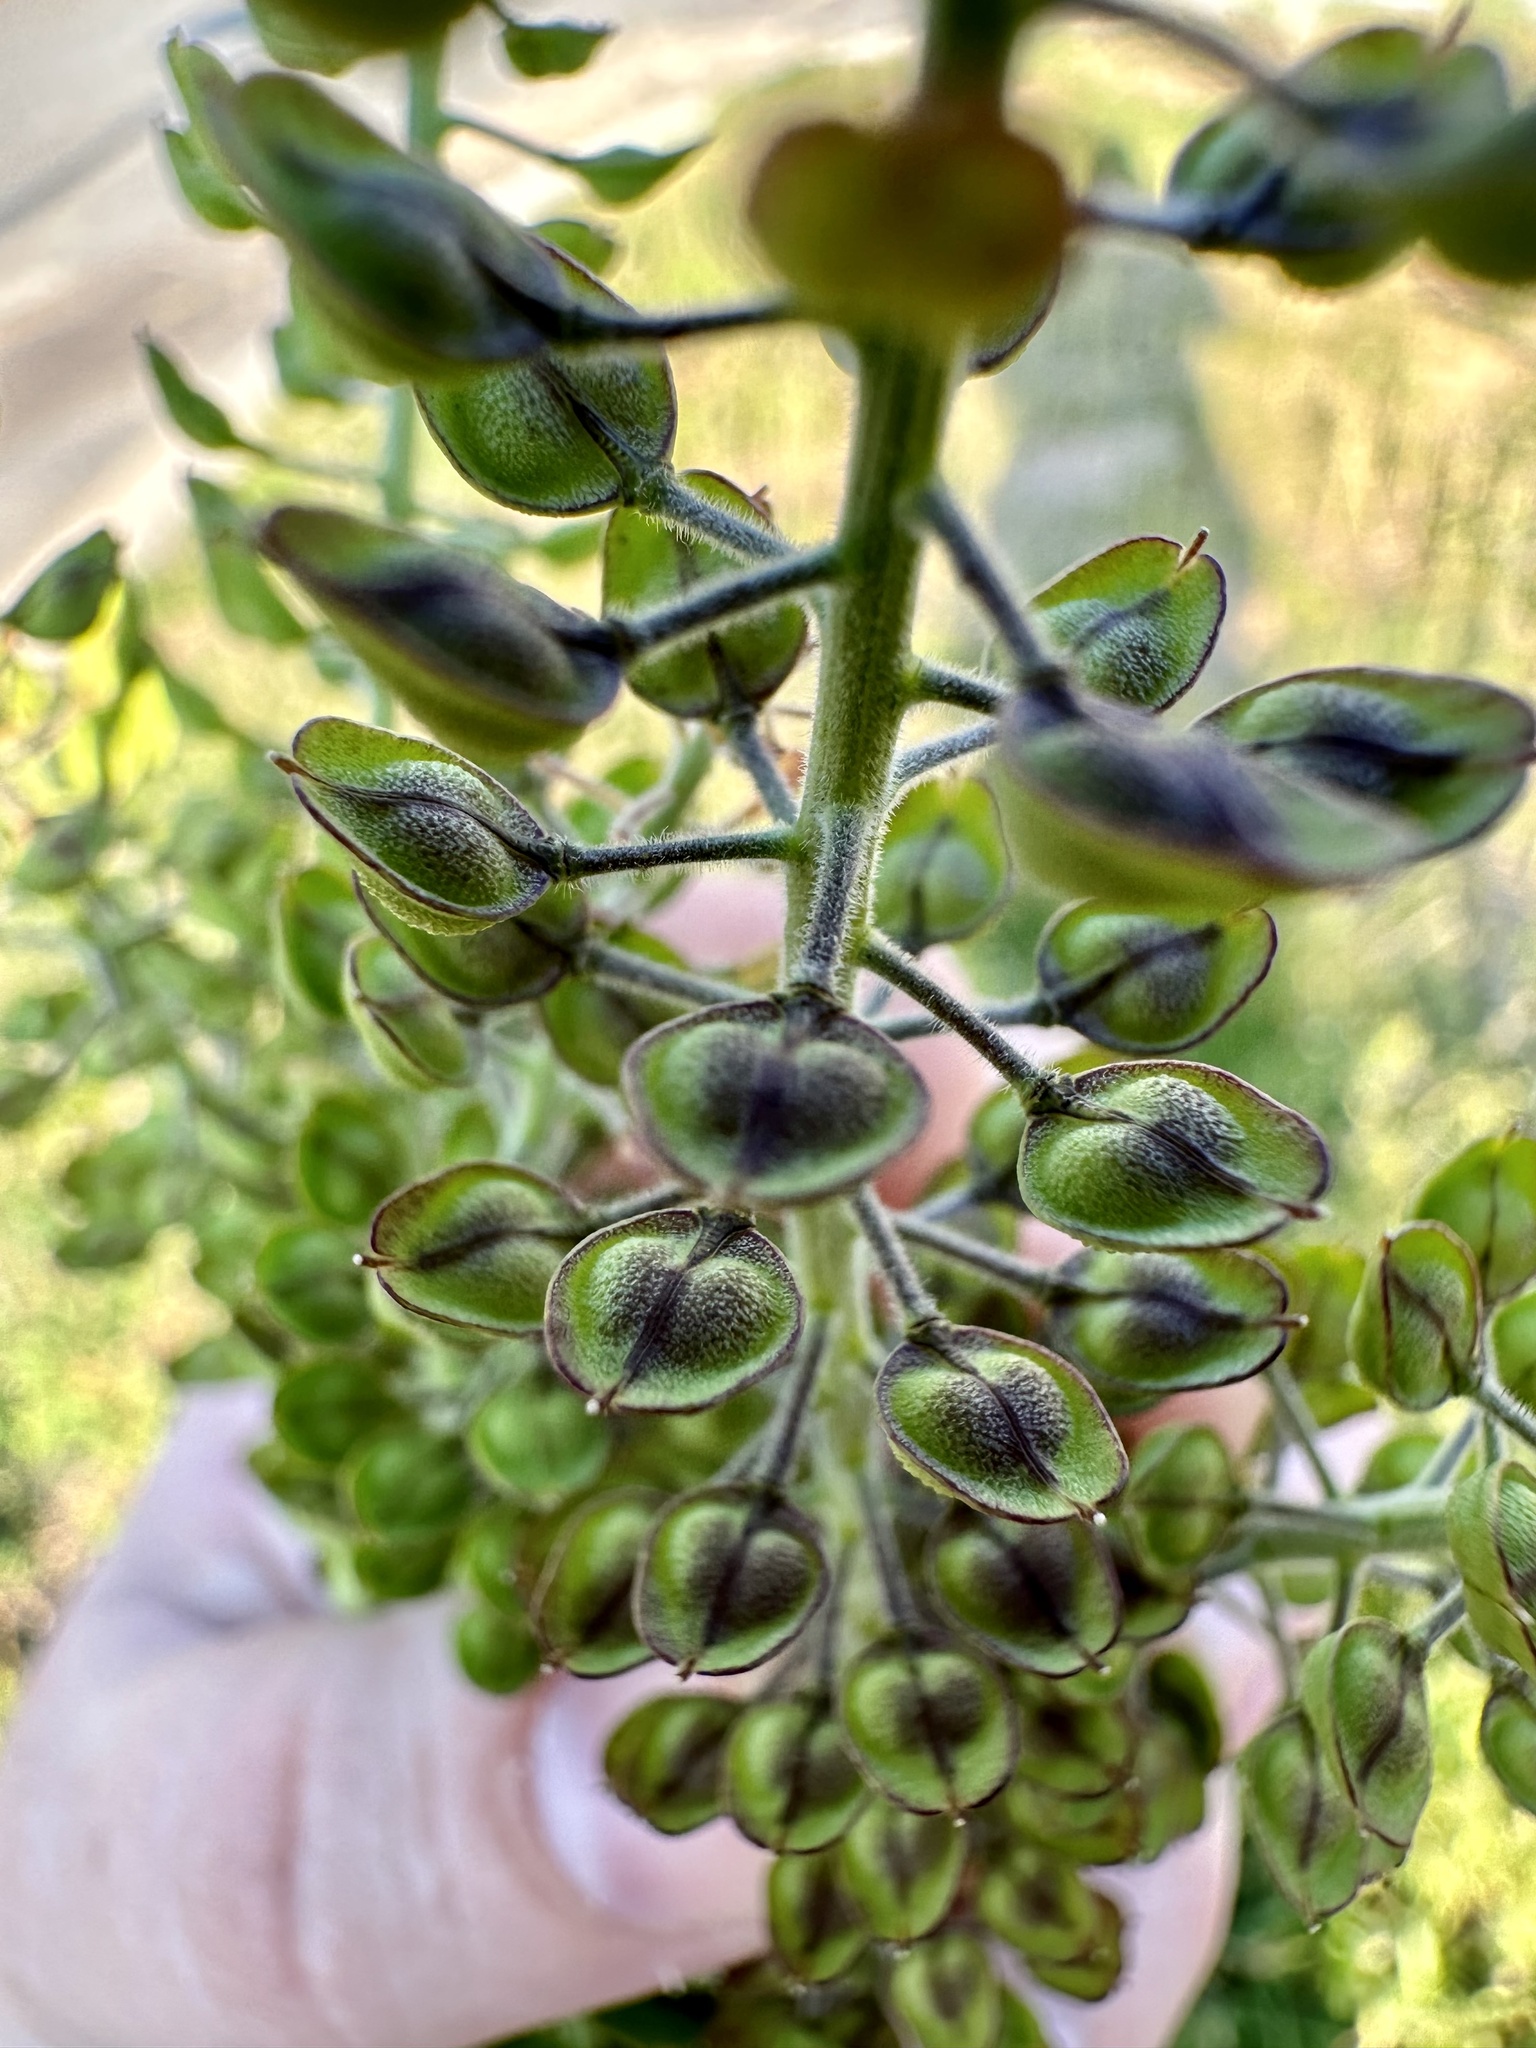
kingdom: Plantae
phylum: Tracheophyta
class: Magnoliopsida
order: Brassicales
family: Brassicaceae
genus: Lepidium
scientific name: Lepidium campestre
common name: Field pepperwort
